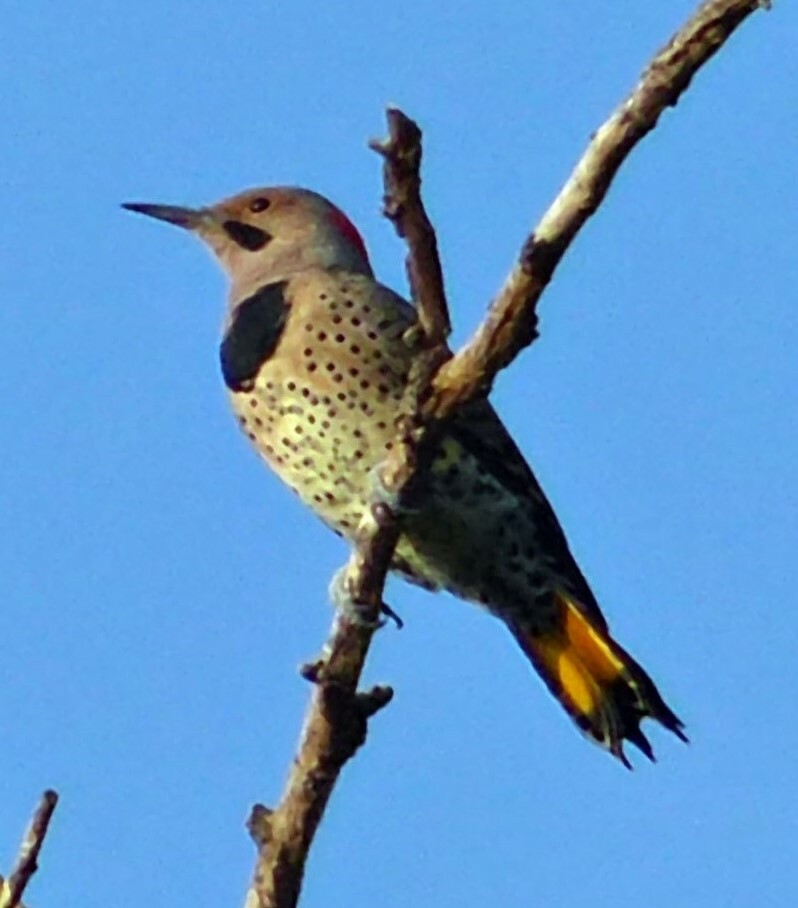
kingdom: Animalia
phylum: Chordata
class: Aves
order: Piciformes
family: Picidae
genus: Colaptes
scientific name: Colaptes auratus
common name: Northern flicker
